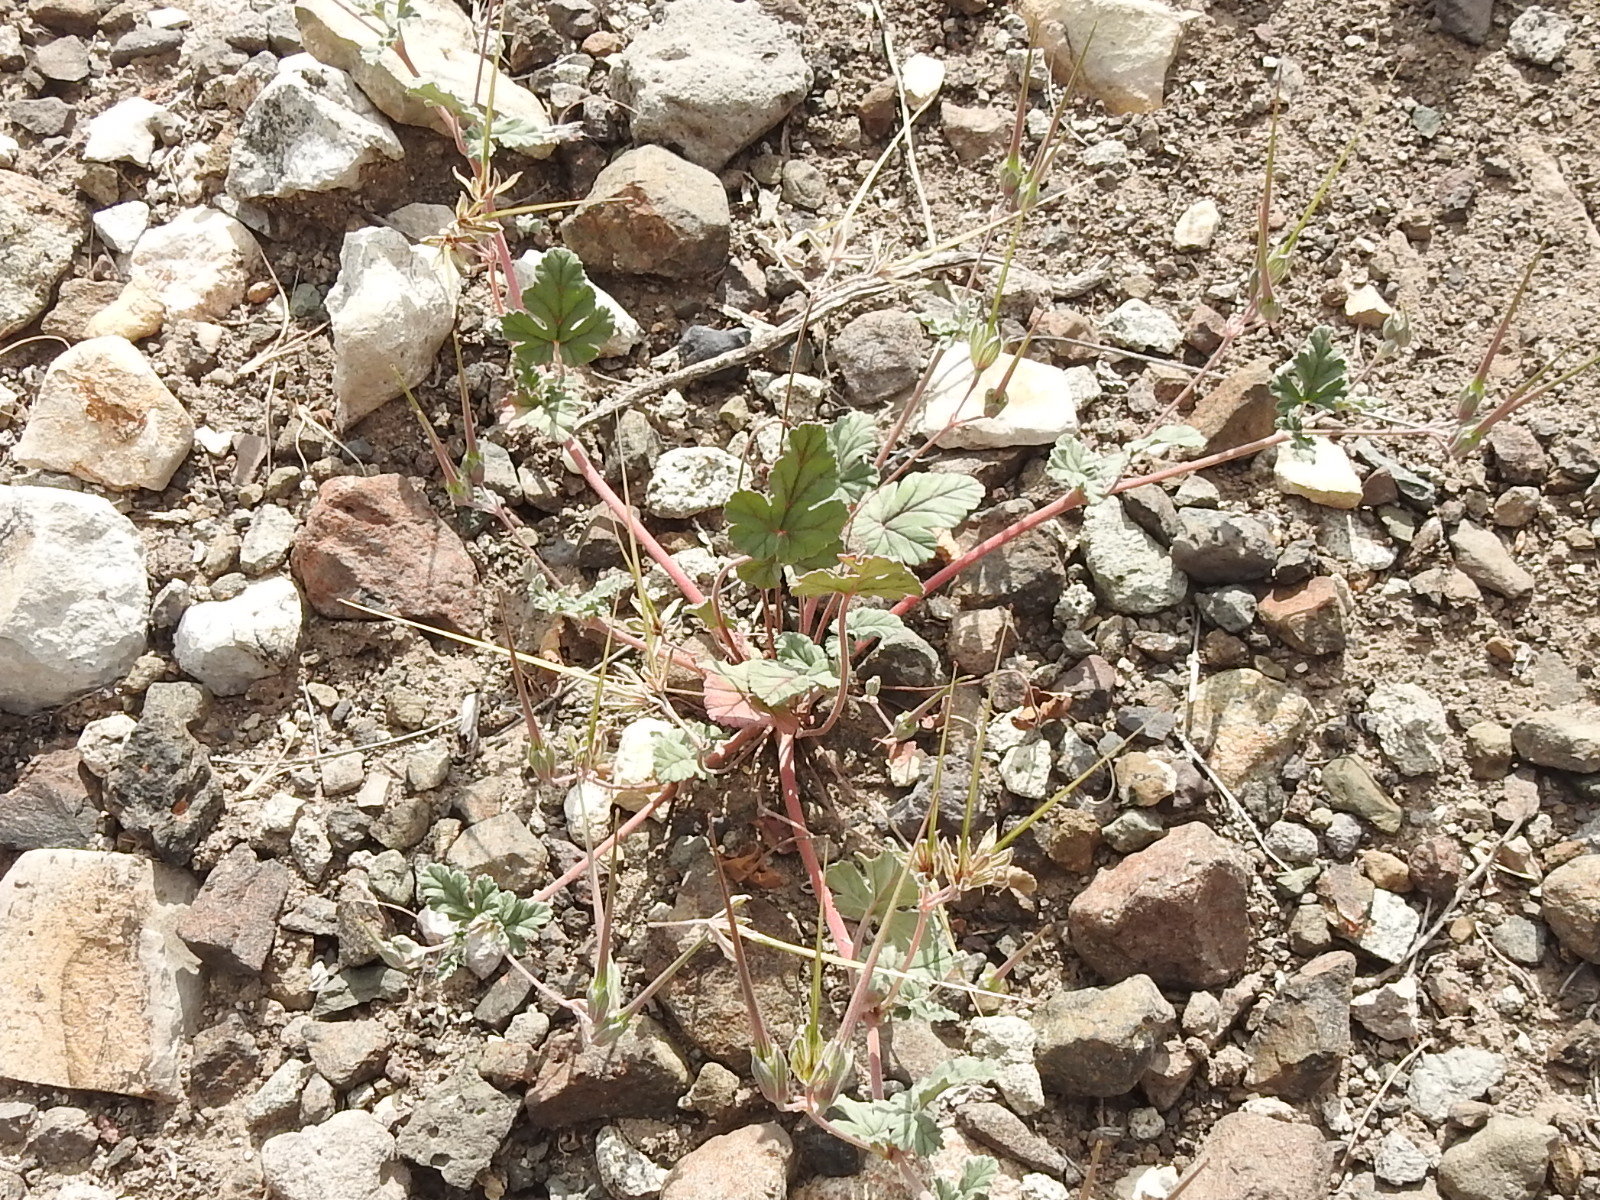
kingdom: Plantae
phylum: Tracheophyta
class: Magnoliopsida
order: Geraniales
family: Geraniaceae
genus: Erodium
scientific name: Erodium texanum
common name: Texas stork's-bill
